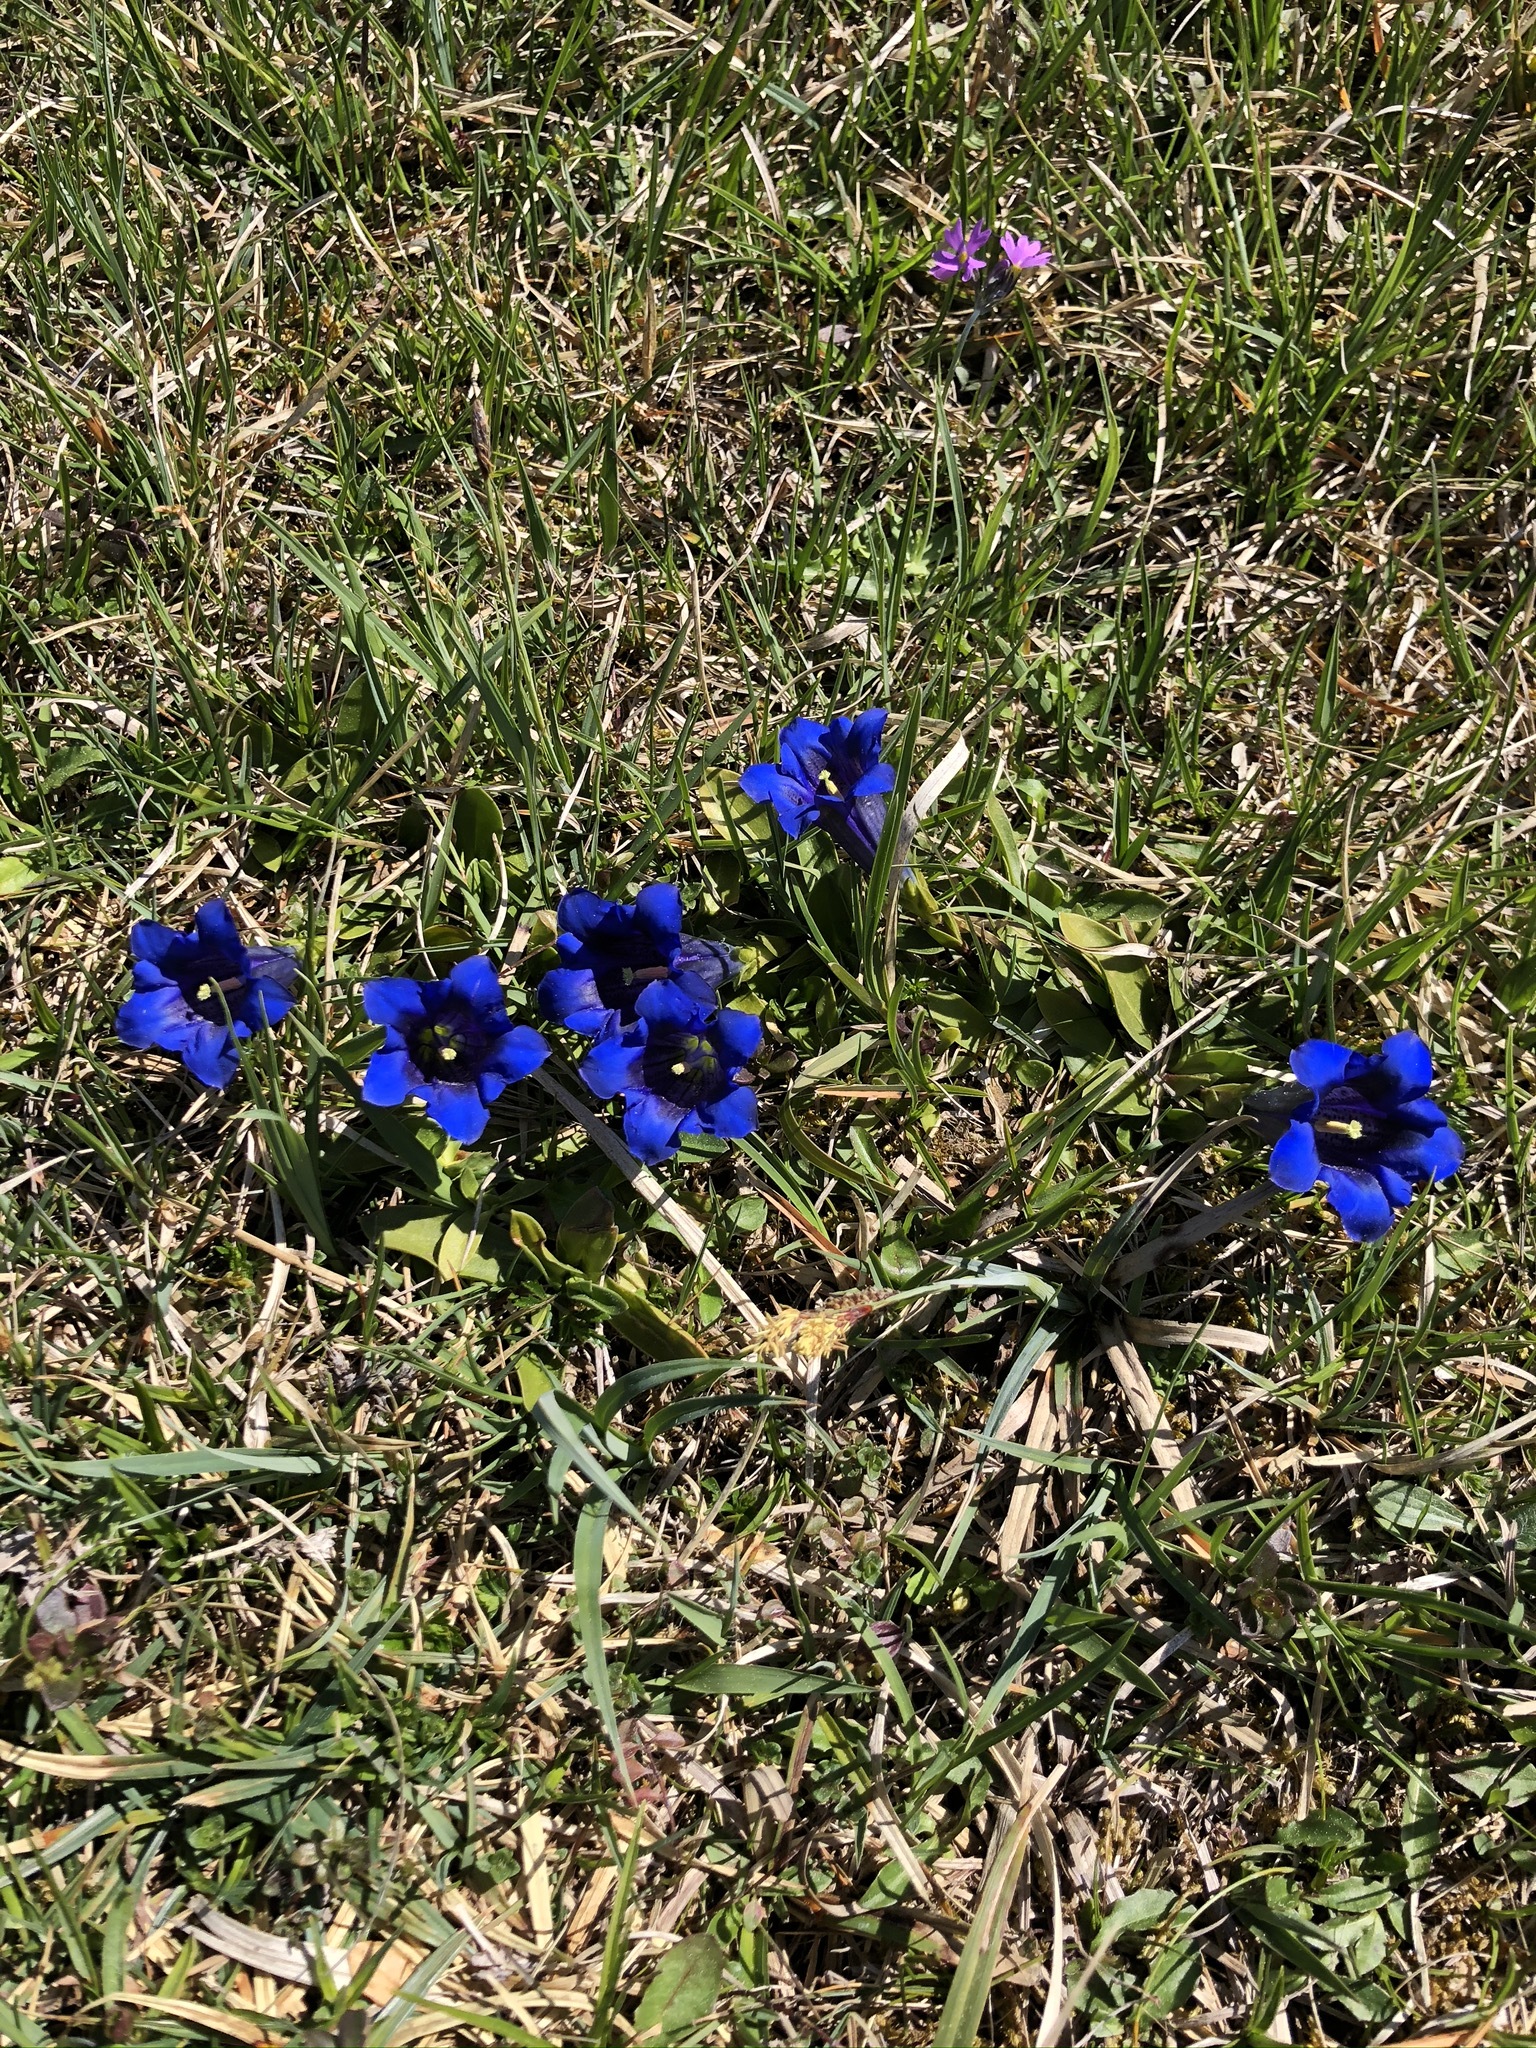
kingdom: Plantae
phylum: Tracheophyta
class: Magnoliopsida
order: Gentianales
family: Gentianaceae
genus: Gentiana
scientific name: Gentiana clusii
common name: Trumpet gentian
